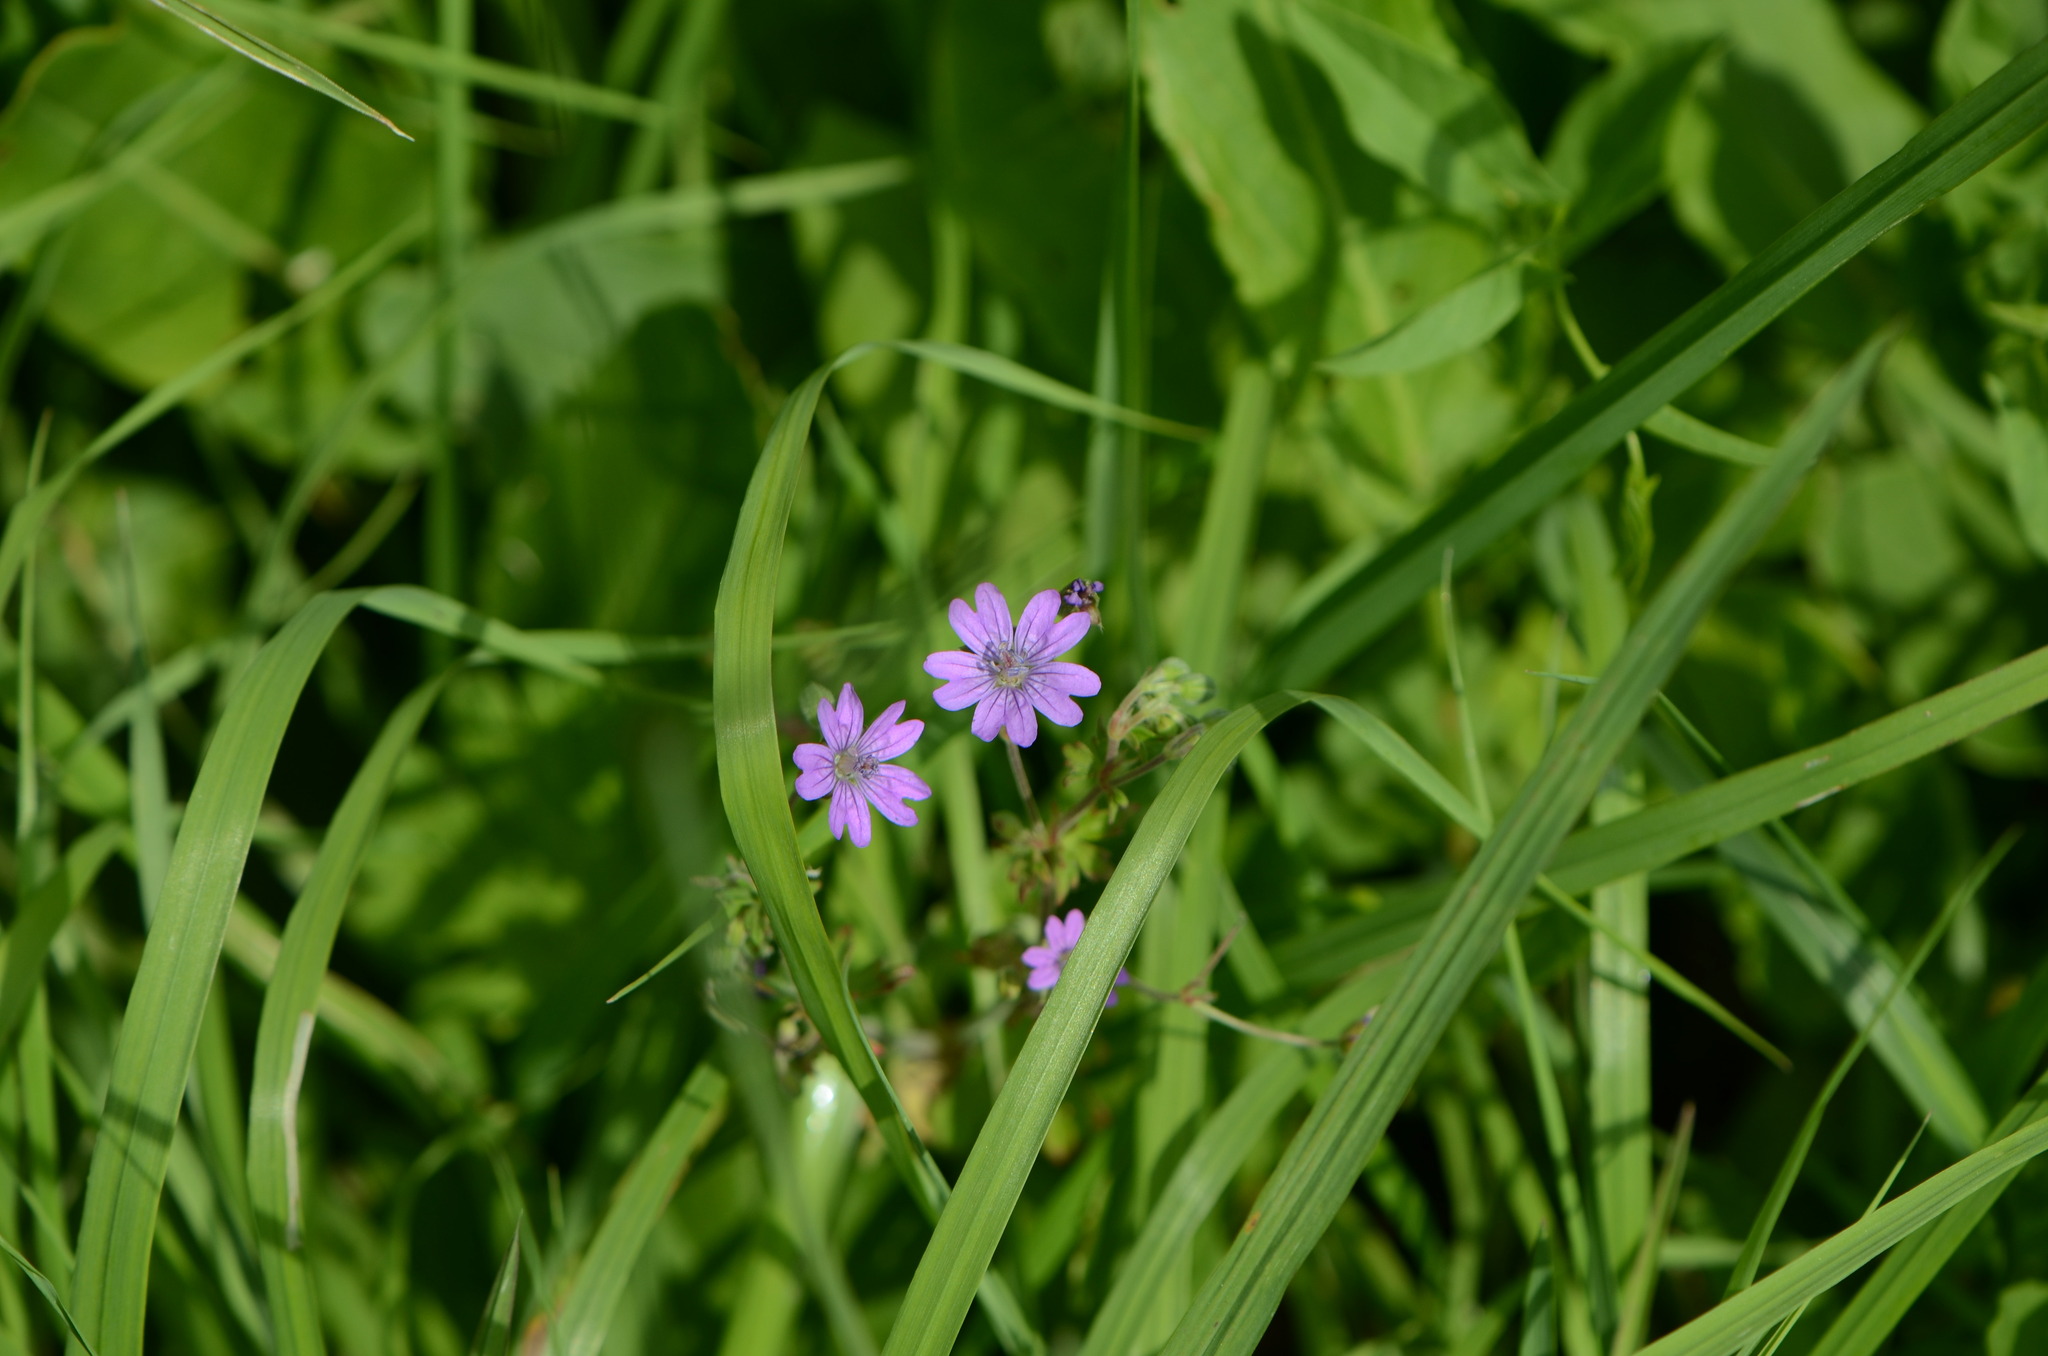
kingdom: Plantae
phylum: Tracheophyta
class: Magnoliopsida
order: Geraniales
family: Geraniaceae
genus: Geranium
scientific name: Geranium pyrenaicum
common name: Hedgerow crane's-bill
